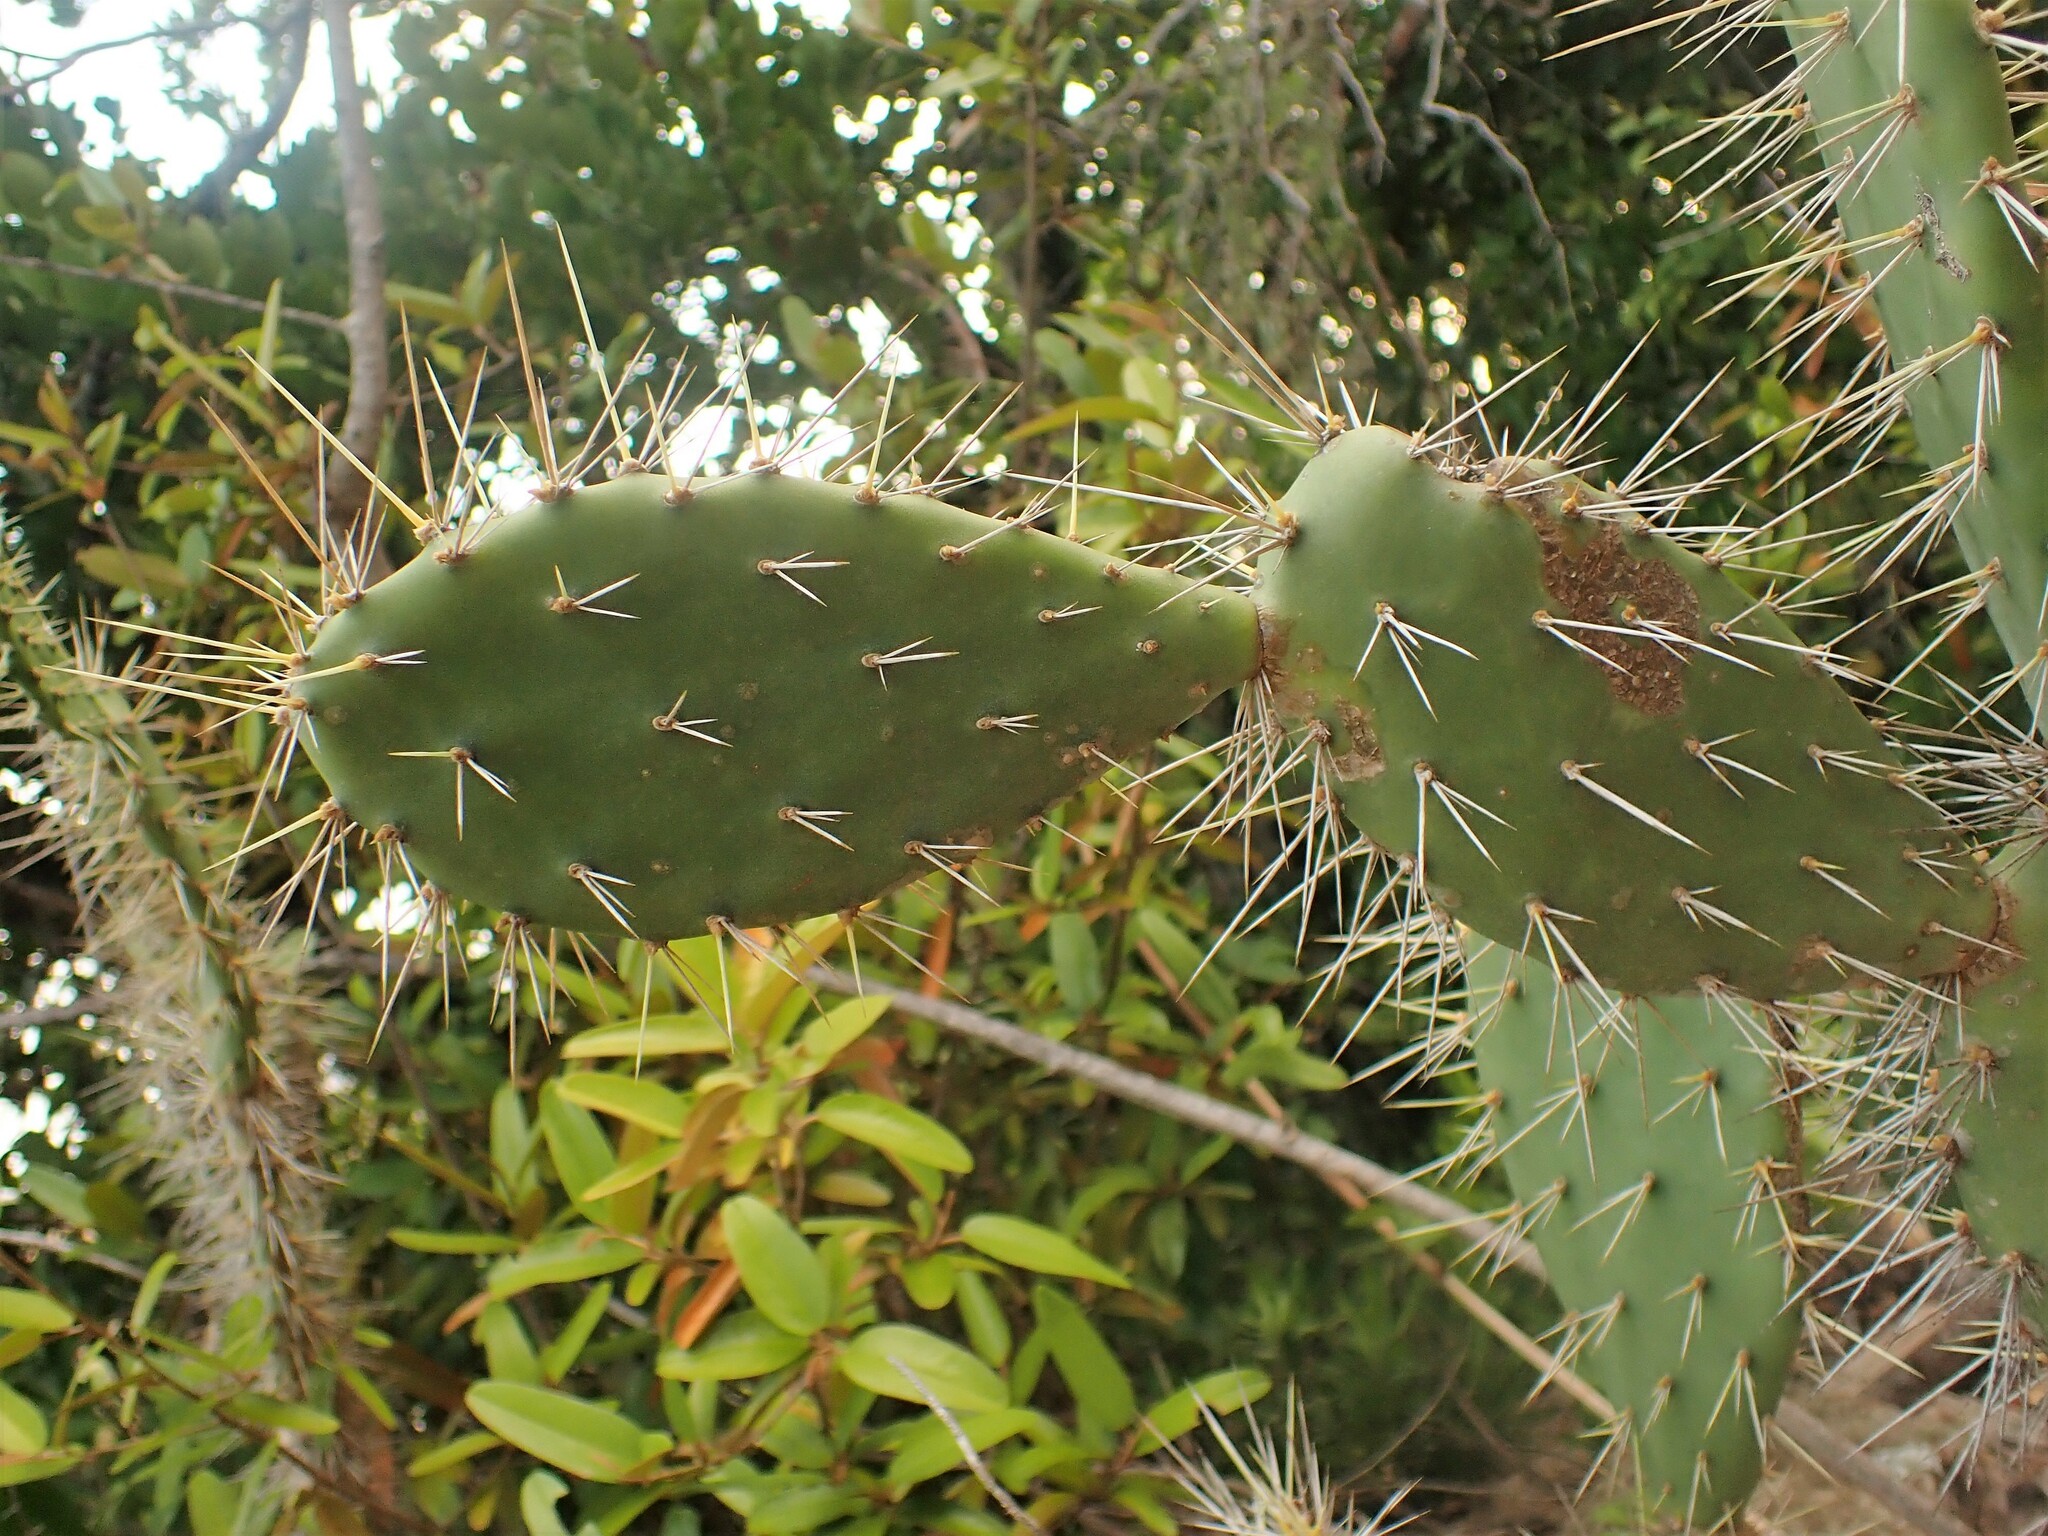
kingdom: Plantae
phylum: Tracheophyta
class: Magnoliopsida
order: Caryophyllales
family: Cactaceae
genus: Opuntia
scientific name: Opuntia caracassana
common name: Common prickly pear
